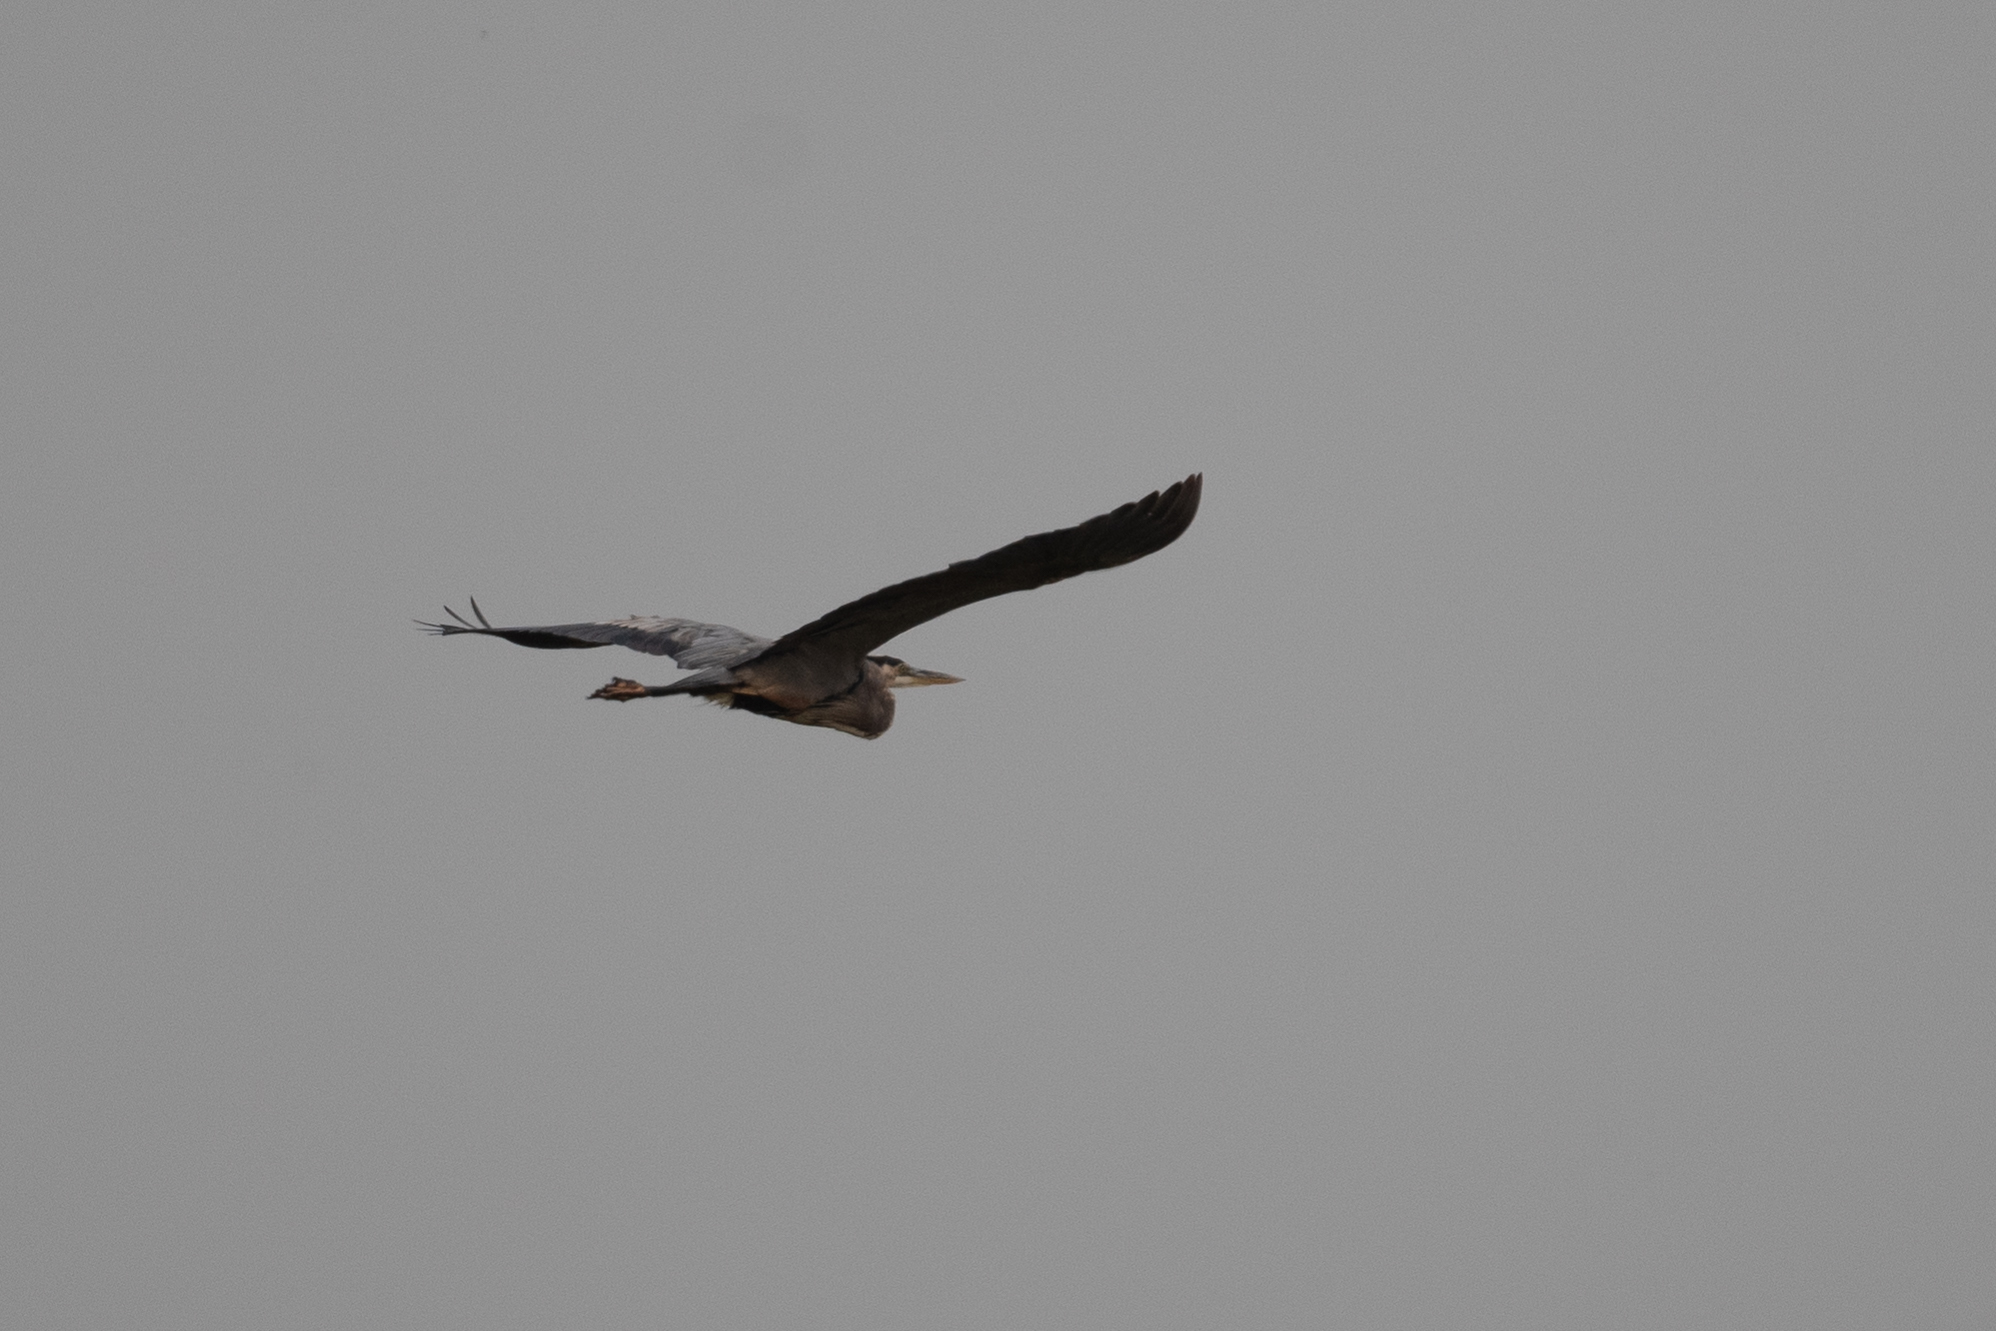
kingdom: Animalia
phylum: Chordata
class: Aves
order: Pelecaniformes
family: Ardeidae
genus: Ardea
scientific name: Ardea herodias
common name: Great blue heron
